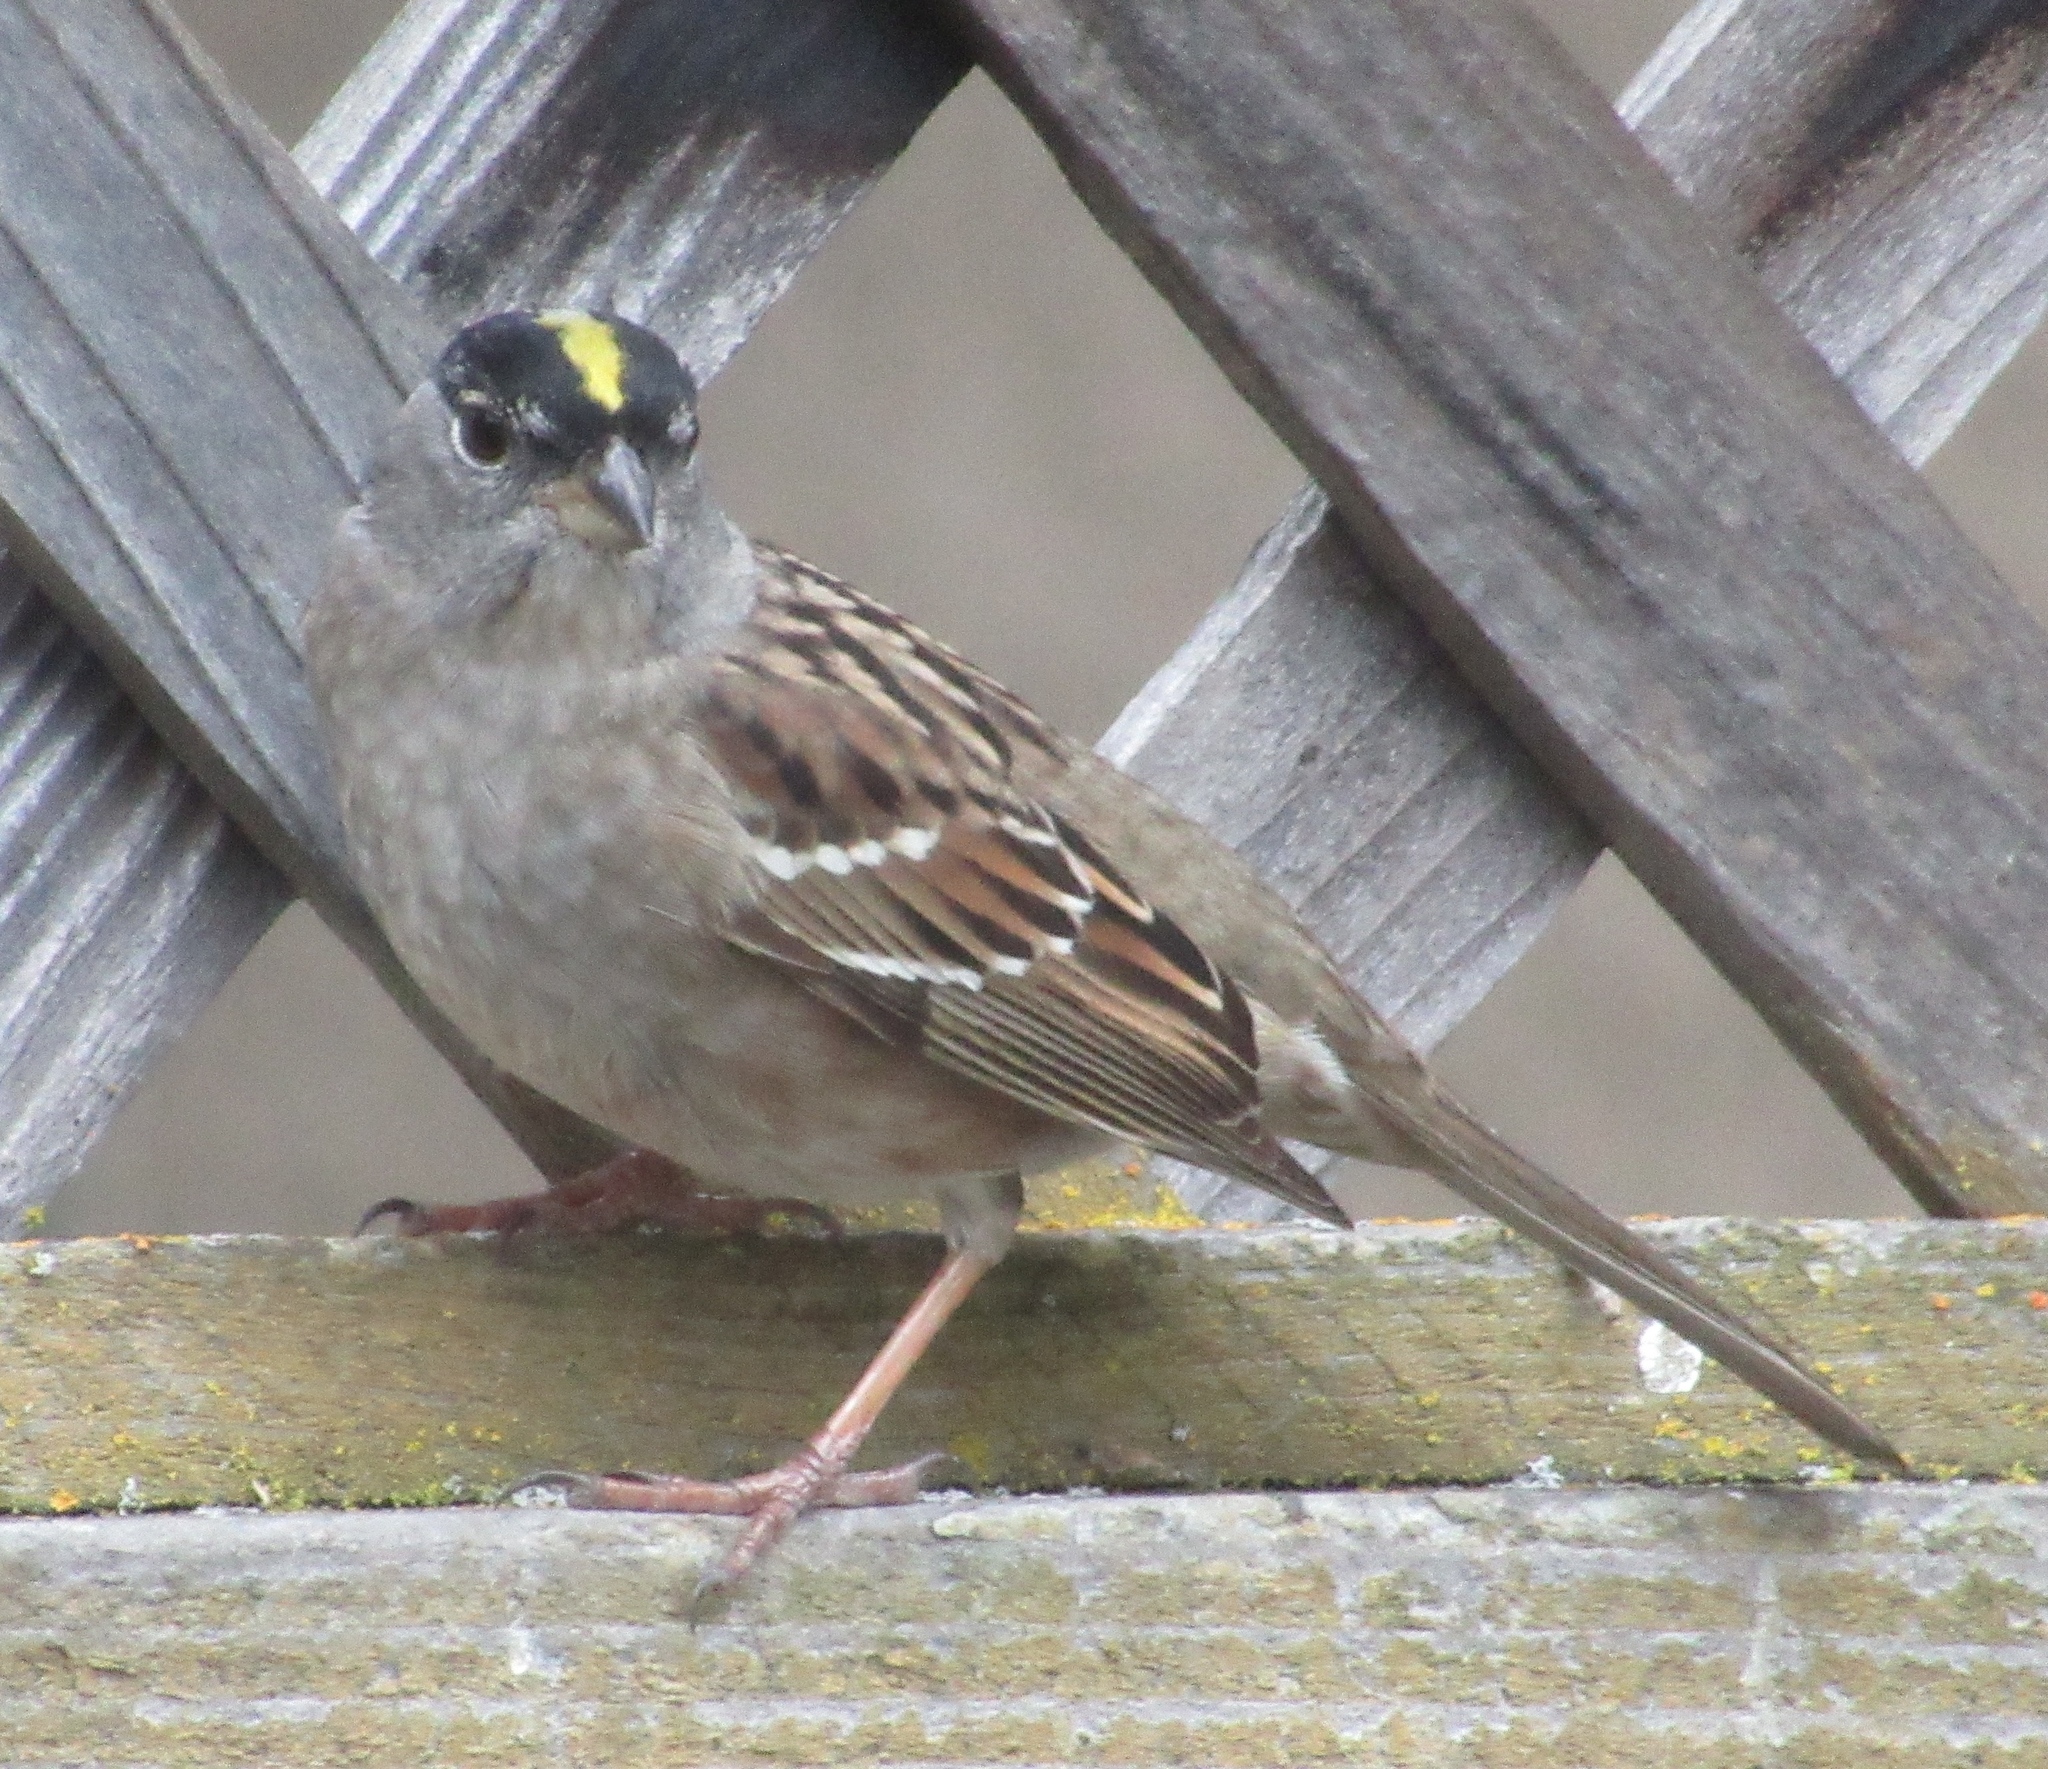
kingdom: Animalia
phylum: Chordata
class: Aves
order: Passeriformes
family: Passerellidae
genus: Zonotrichia
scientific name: Zonotrichia atricapilla
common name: Golden-crowned sparrow
